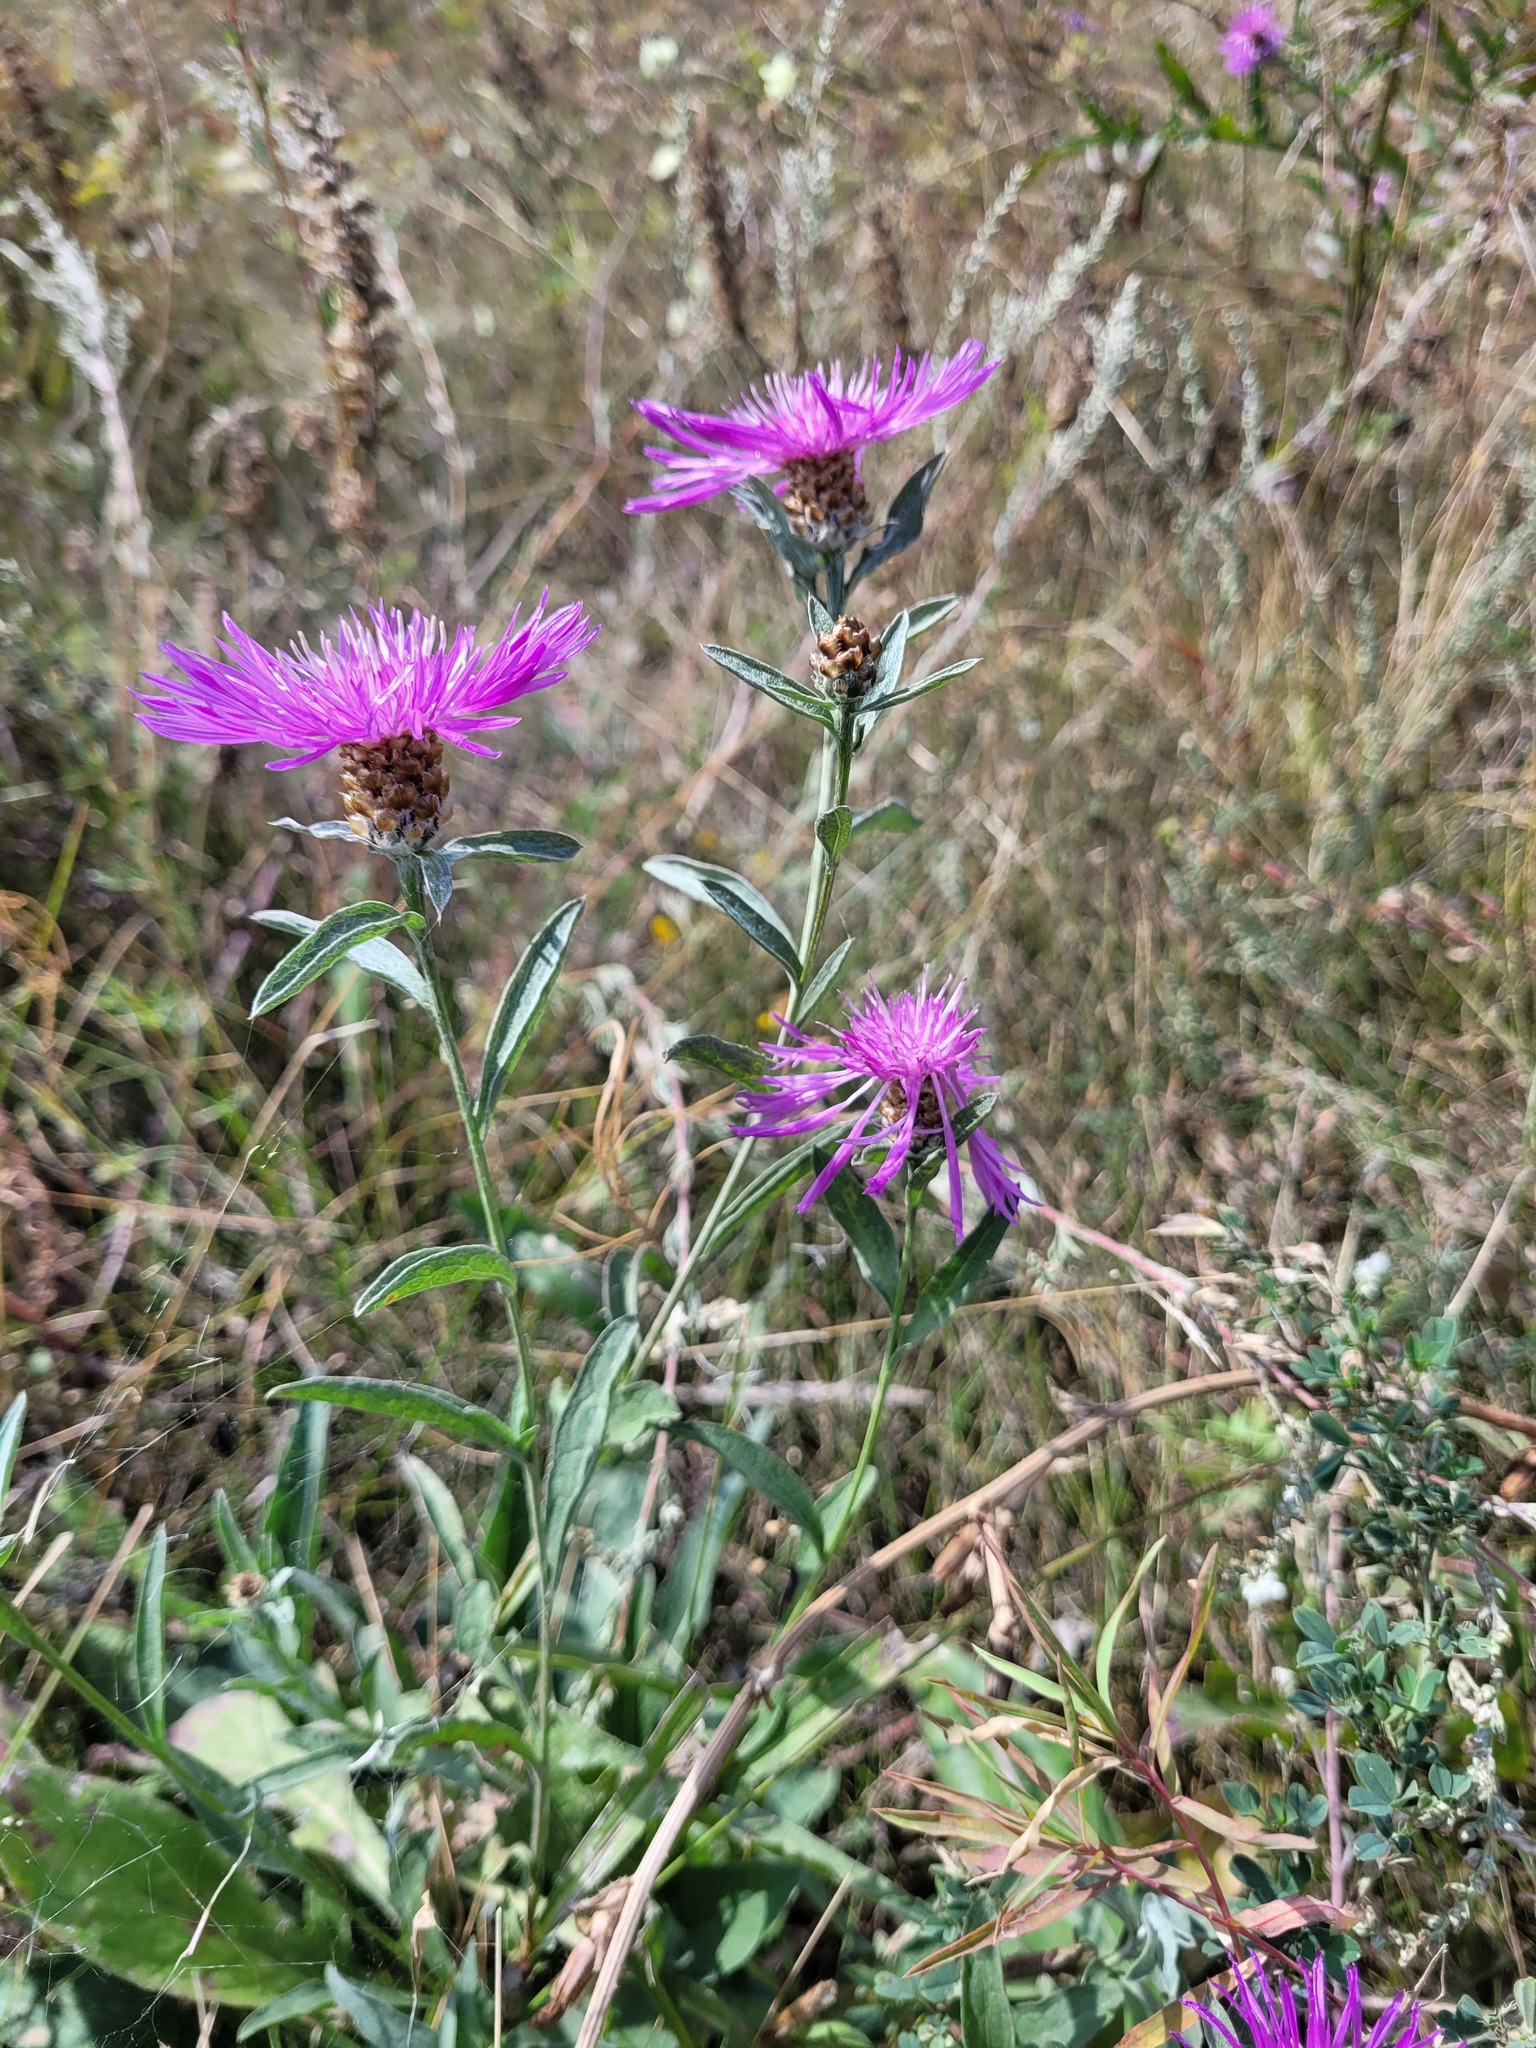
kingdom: Plantae
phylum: Tracheophyta
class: Magnoliopsida
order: Asterales
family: Asteraceae
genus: Centaurea
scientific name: Centaurea jacea
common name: Brown knapweed
